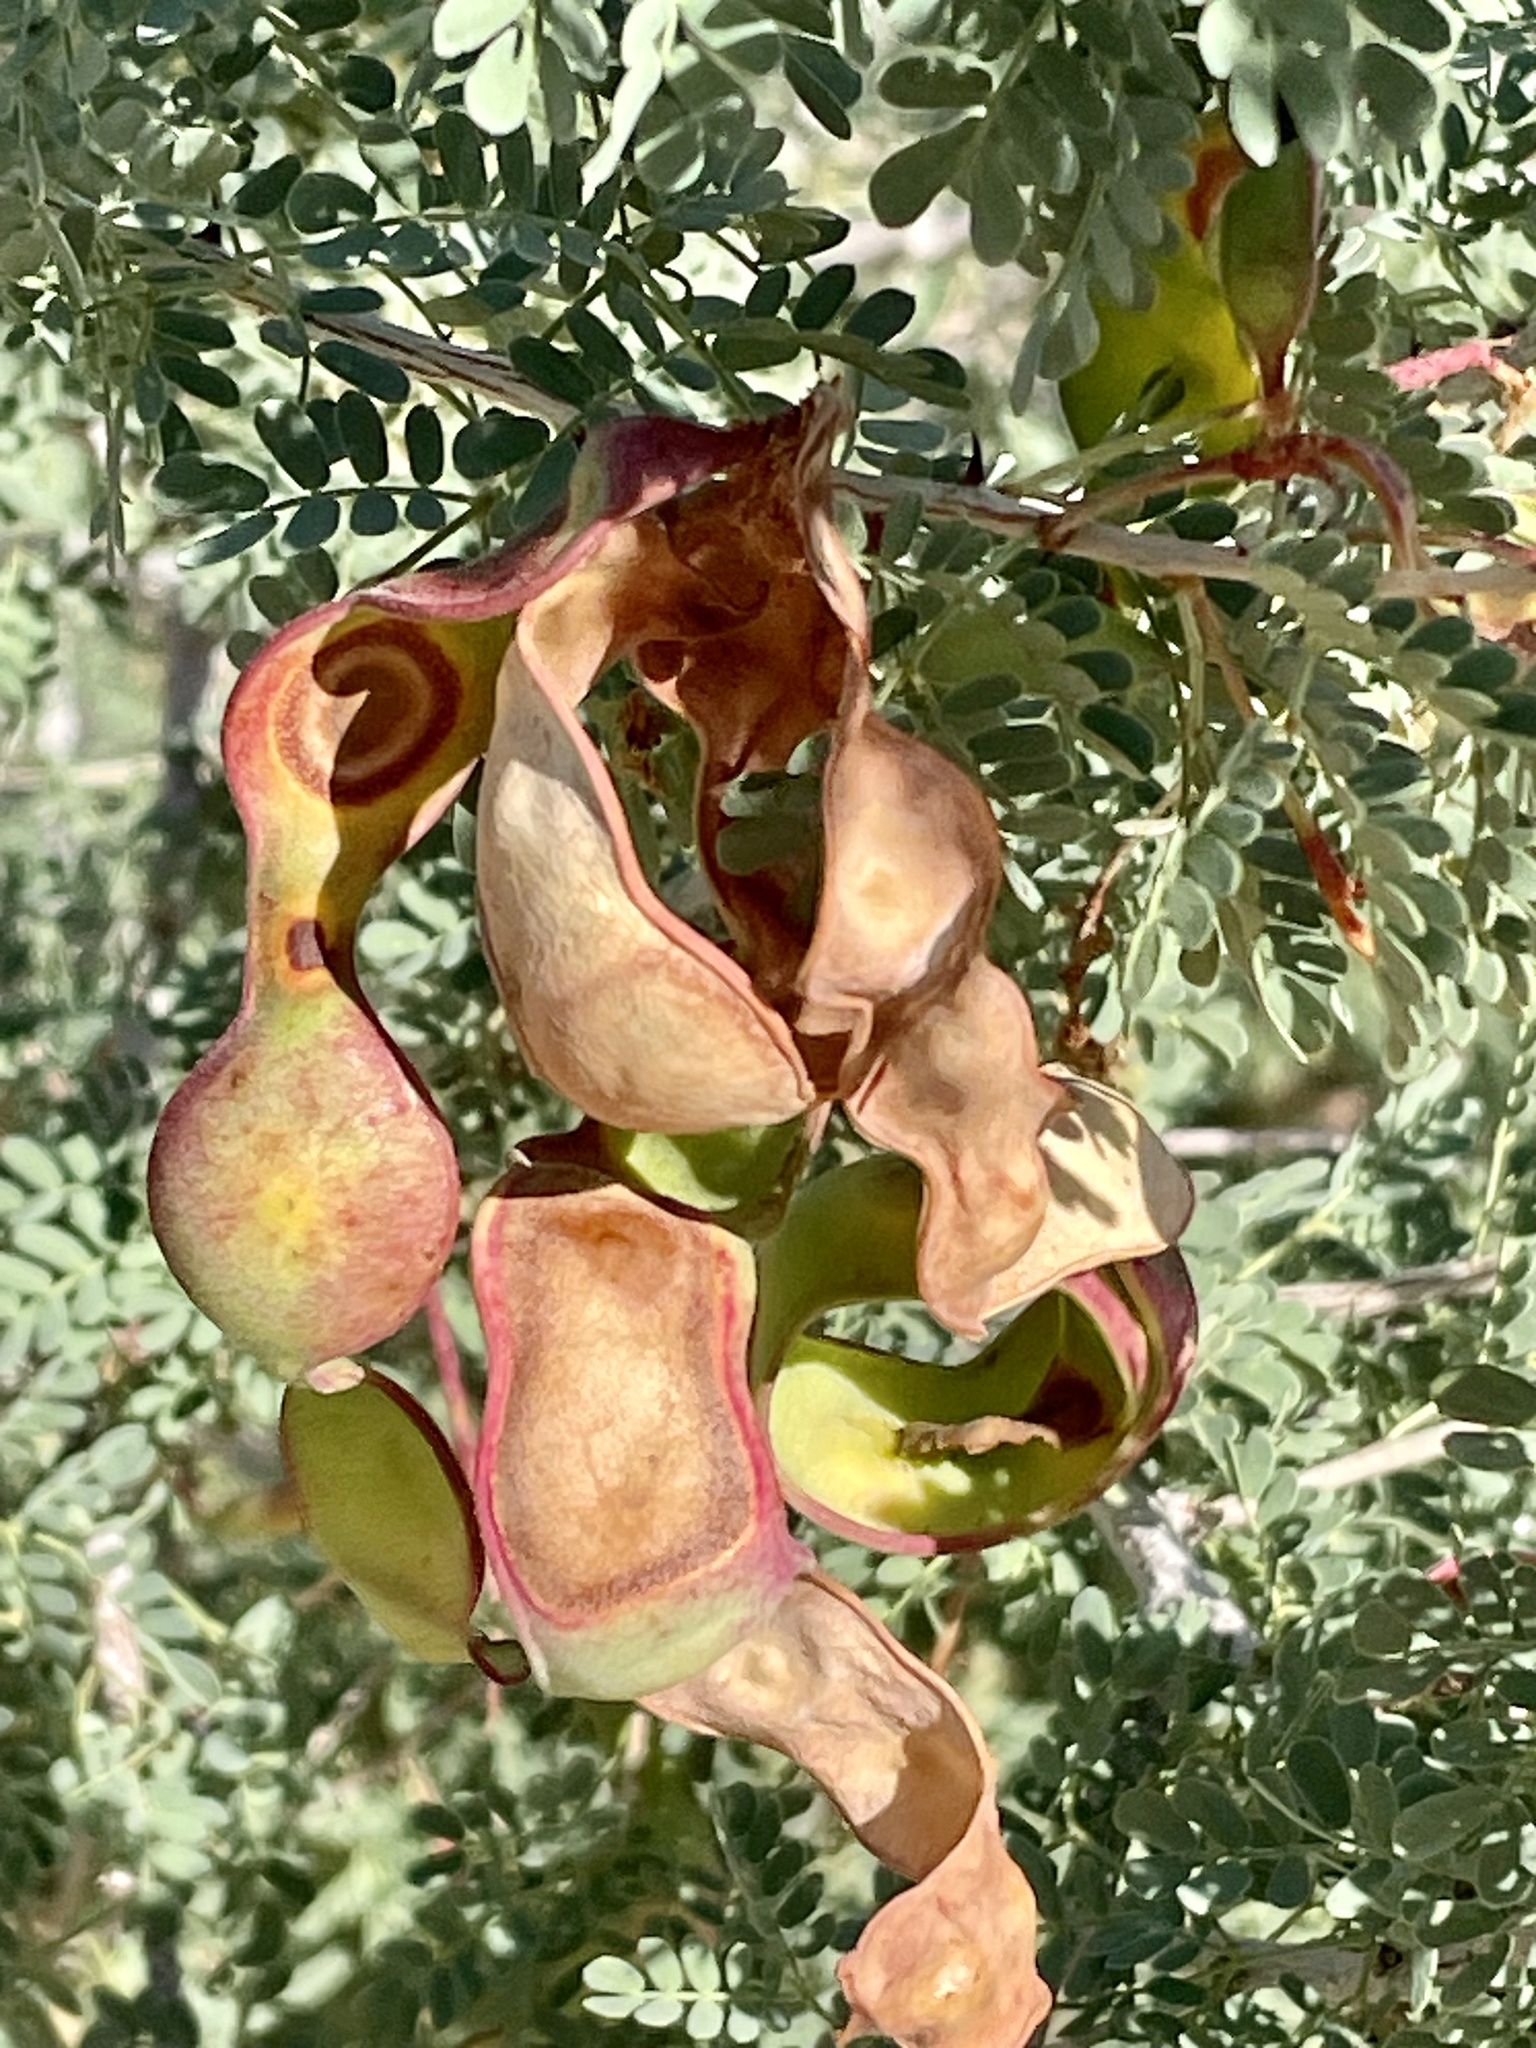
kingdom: Plantae
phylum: Tracheophyta
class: Magnoliopsida
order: Fabales
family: Fabaceae
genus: Senegalia
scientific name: Senegalia greggii
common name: Texas-mimosa
